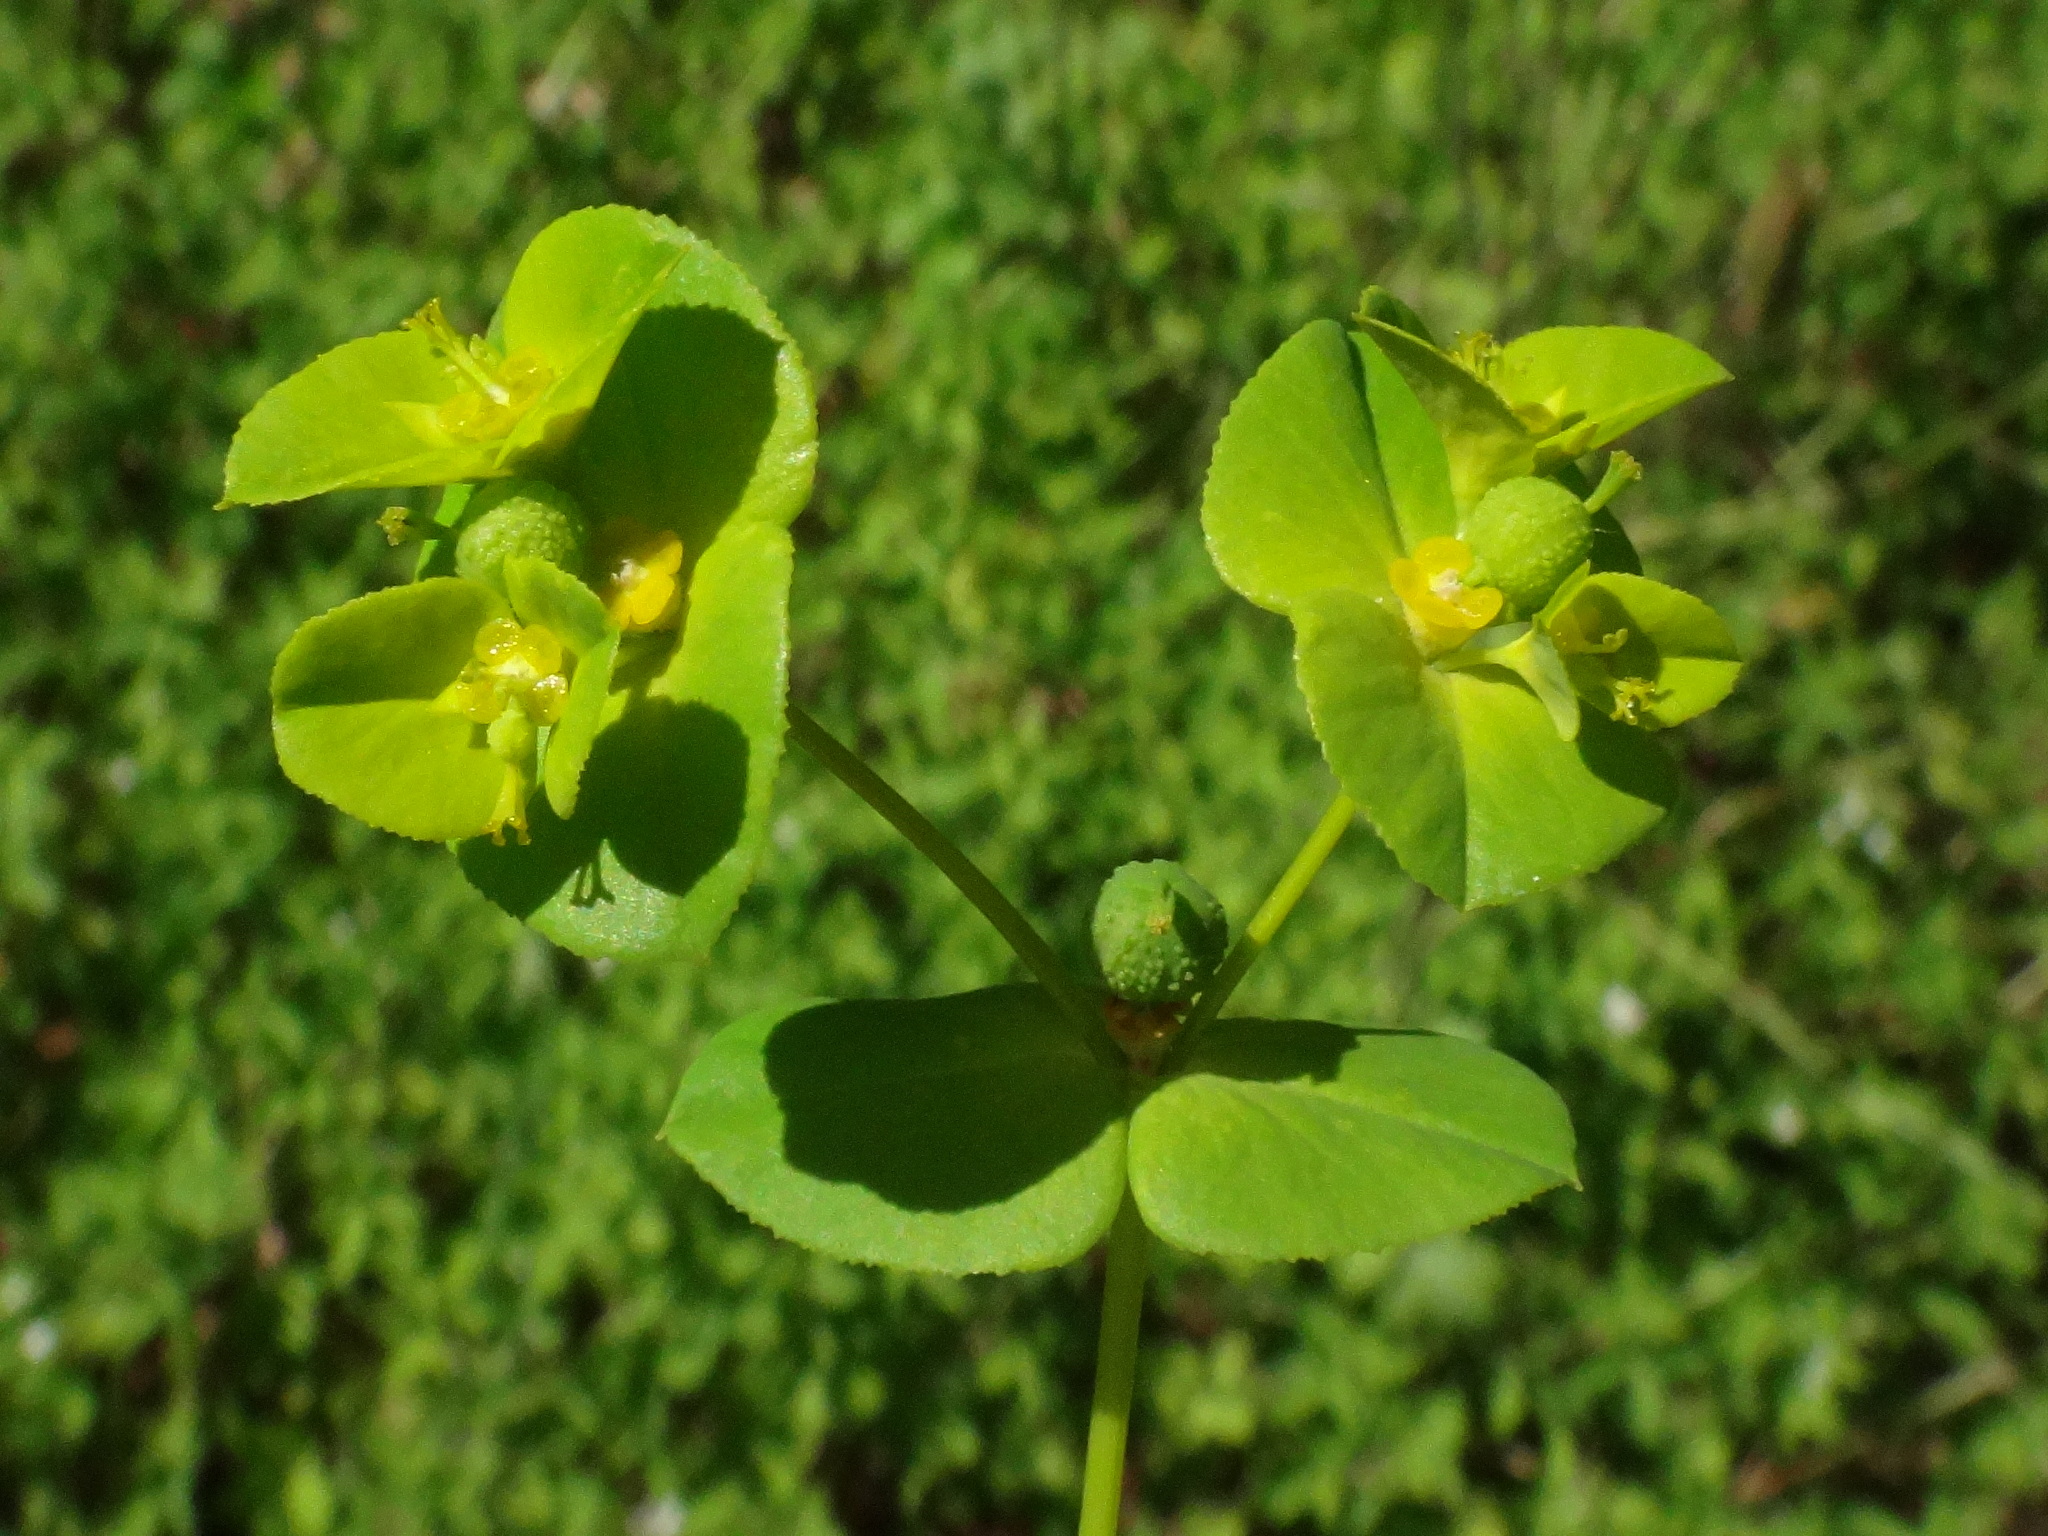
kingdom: Plantae
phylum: Tracheophyta
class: Magnoliopsida
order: Malpighiales
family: Euphorbiaceae
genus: Euphorbia
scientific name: Euphorbia platyphyllos
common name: Broad-leaved spurge
